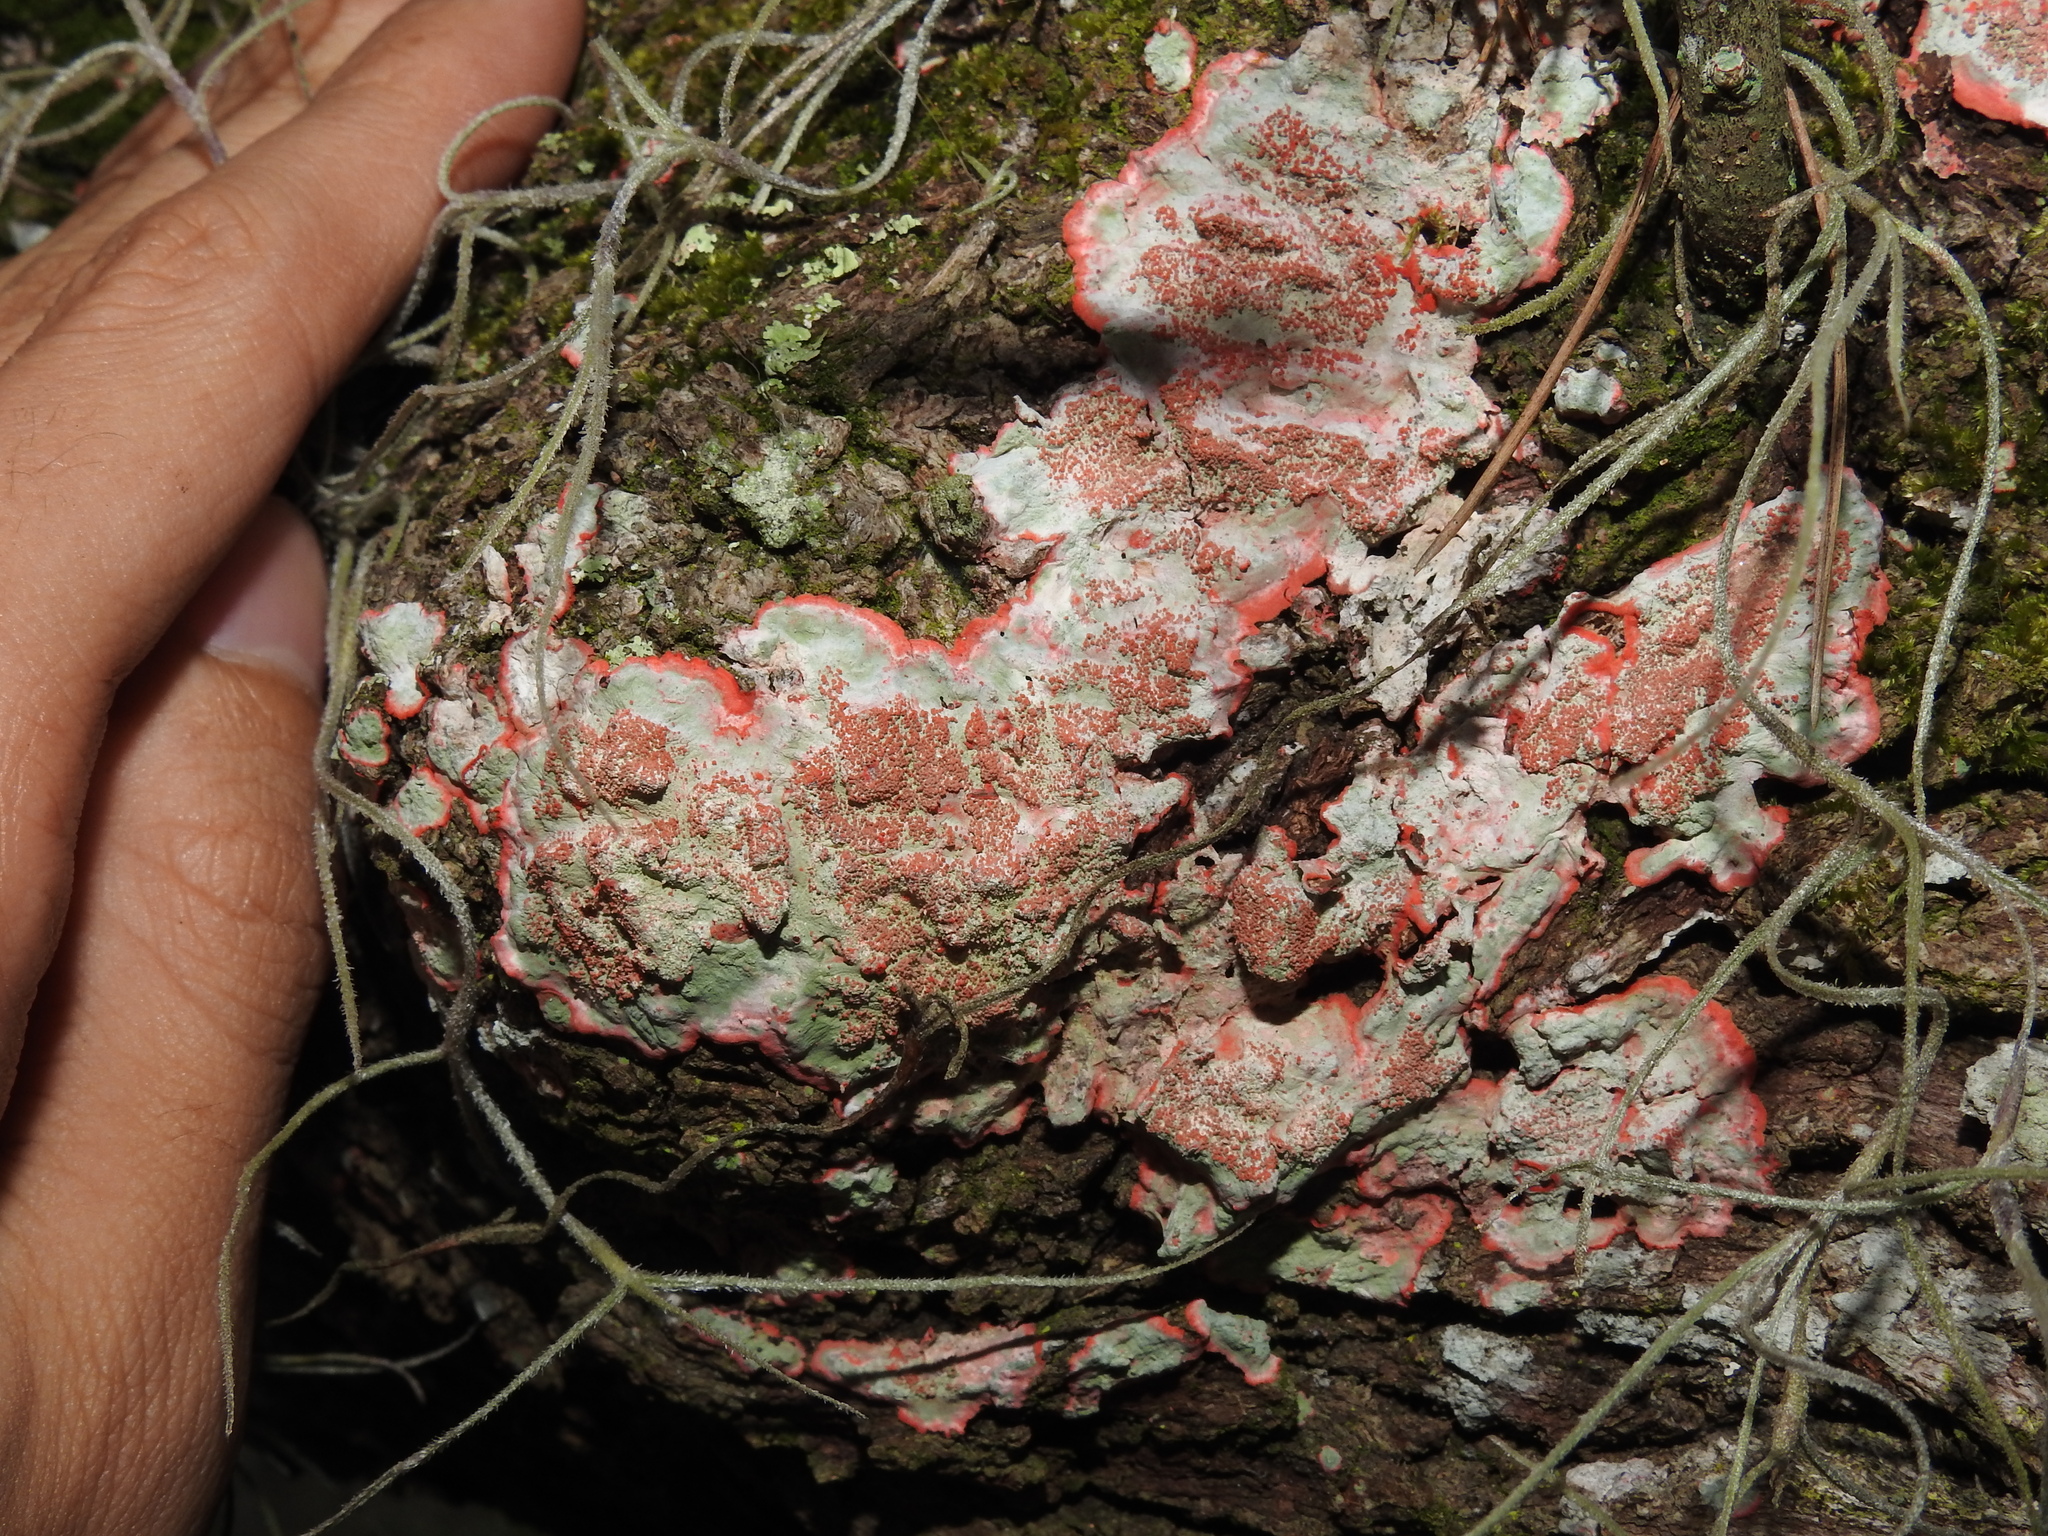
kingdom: Fungi
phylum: Ascomycota
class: Arthoniomycetes
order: Arthoniales
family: Arthoniaceae
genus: Herpothallon
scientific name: Herpothallon rubrocinctum
